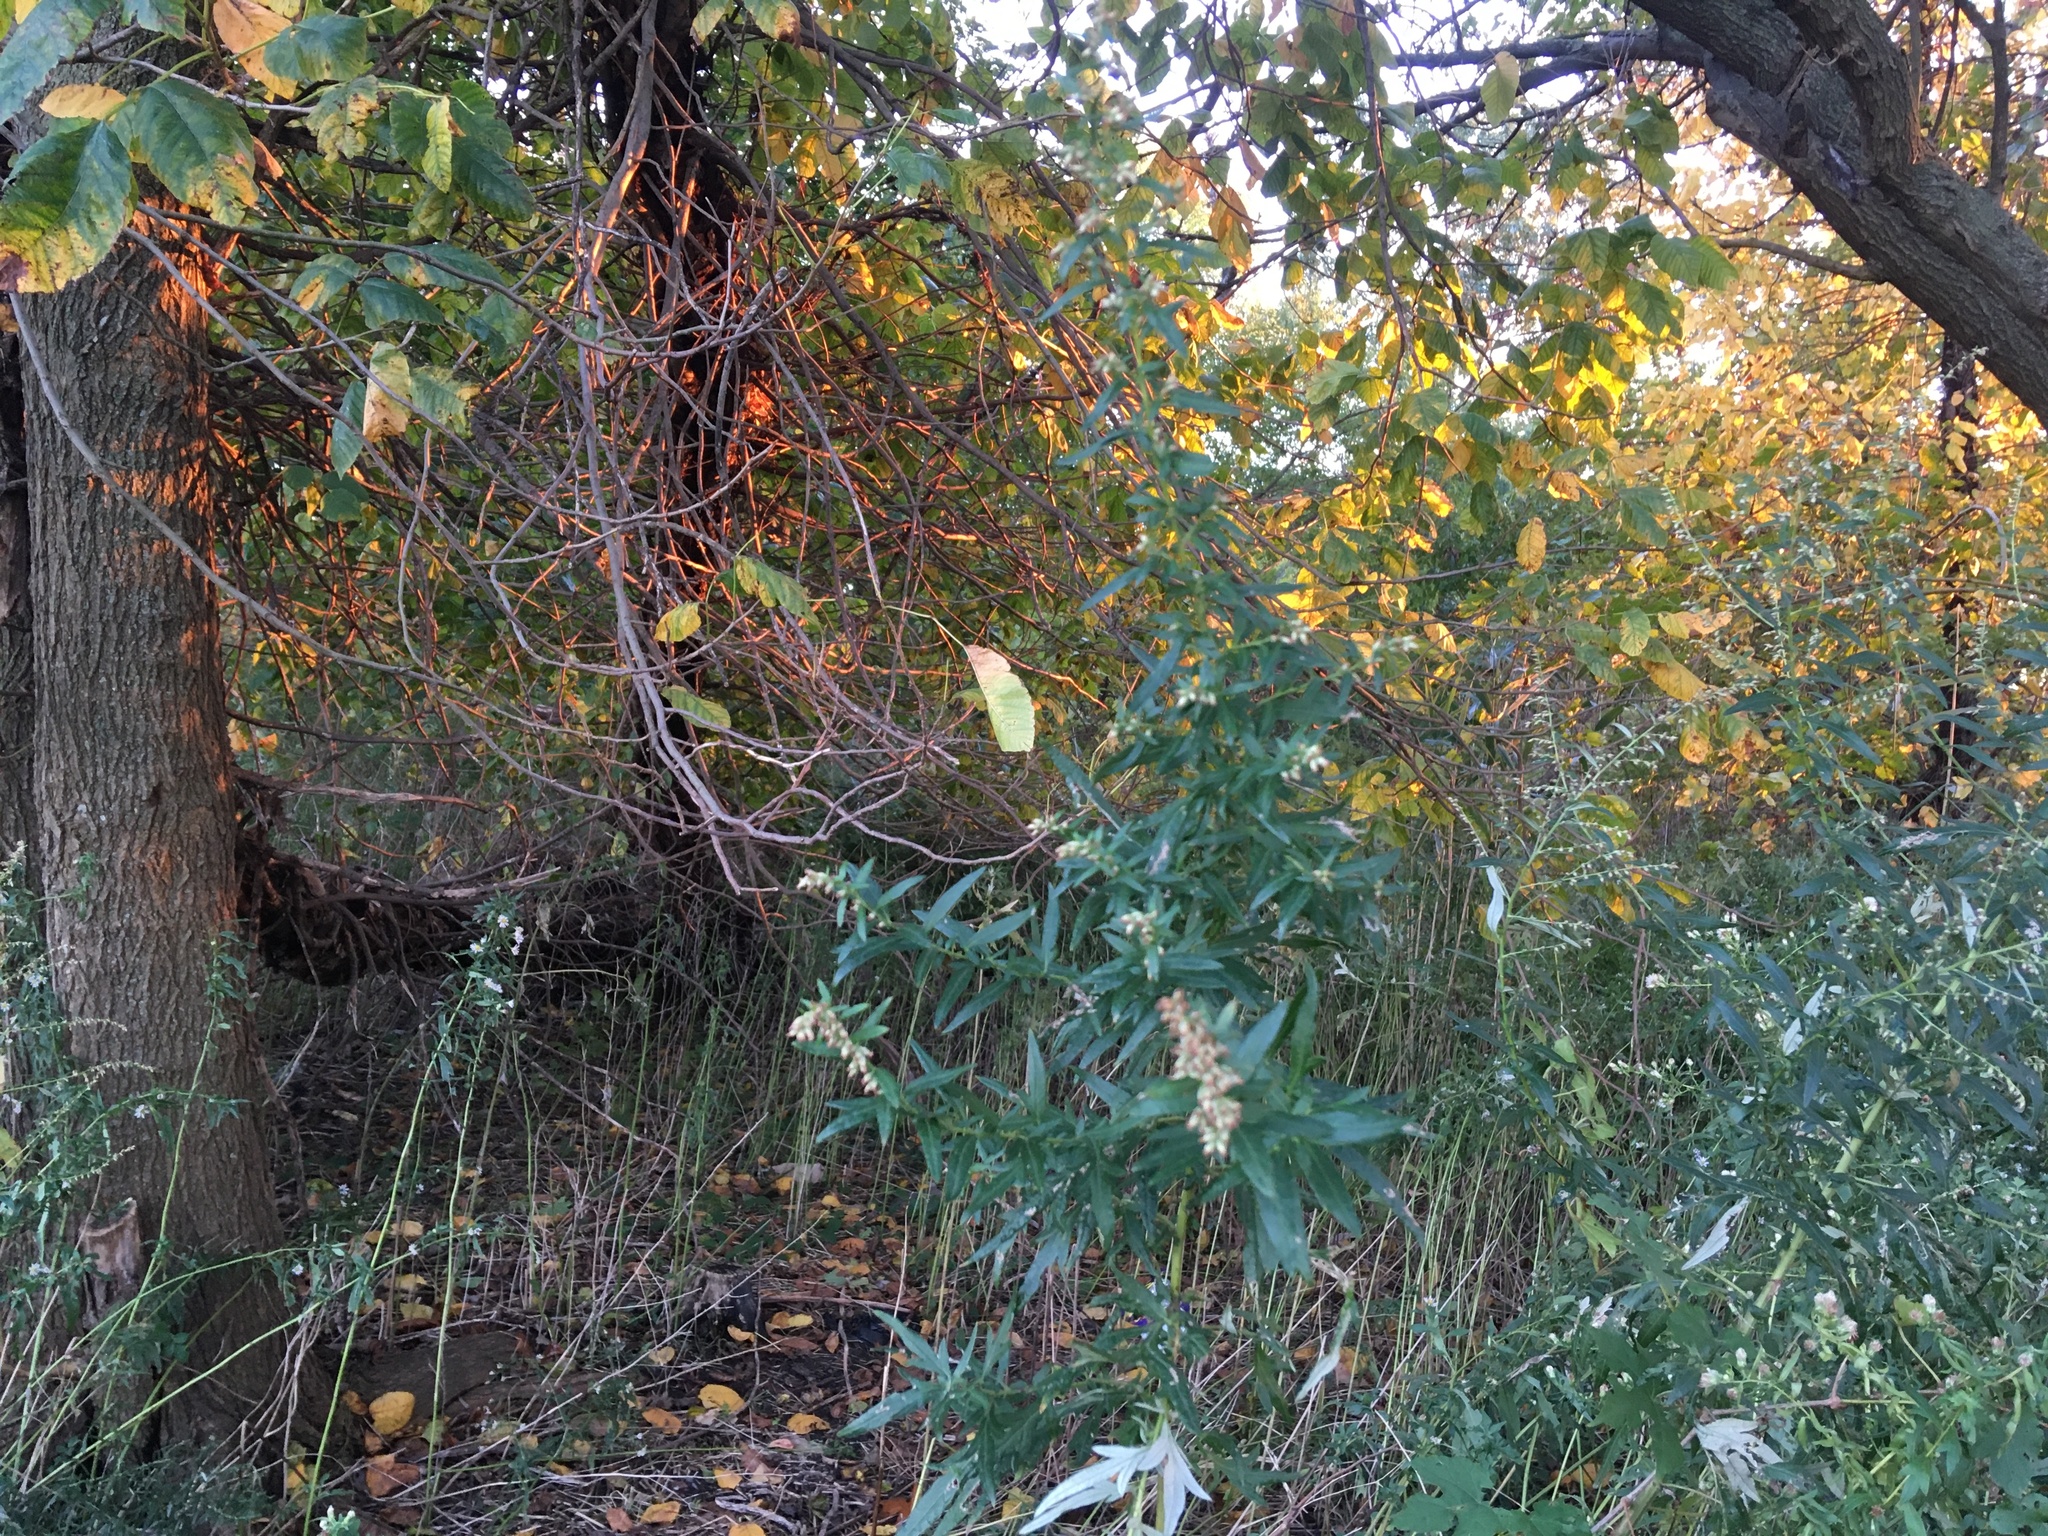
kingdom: Plantae
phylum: Tracheophyta
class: Magnoliopsida
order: Asterales
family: Asteraceae
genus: Artemisia
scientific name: Artemisia vulgaris
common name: Mugwort
